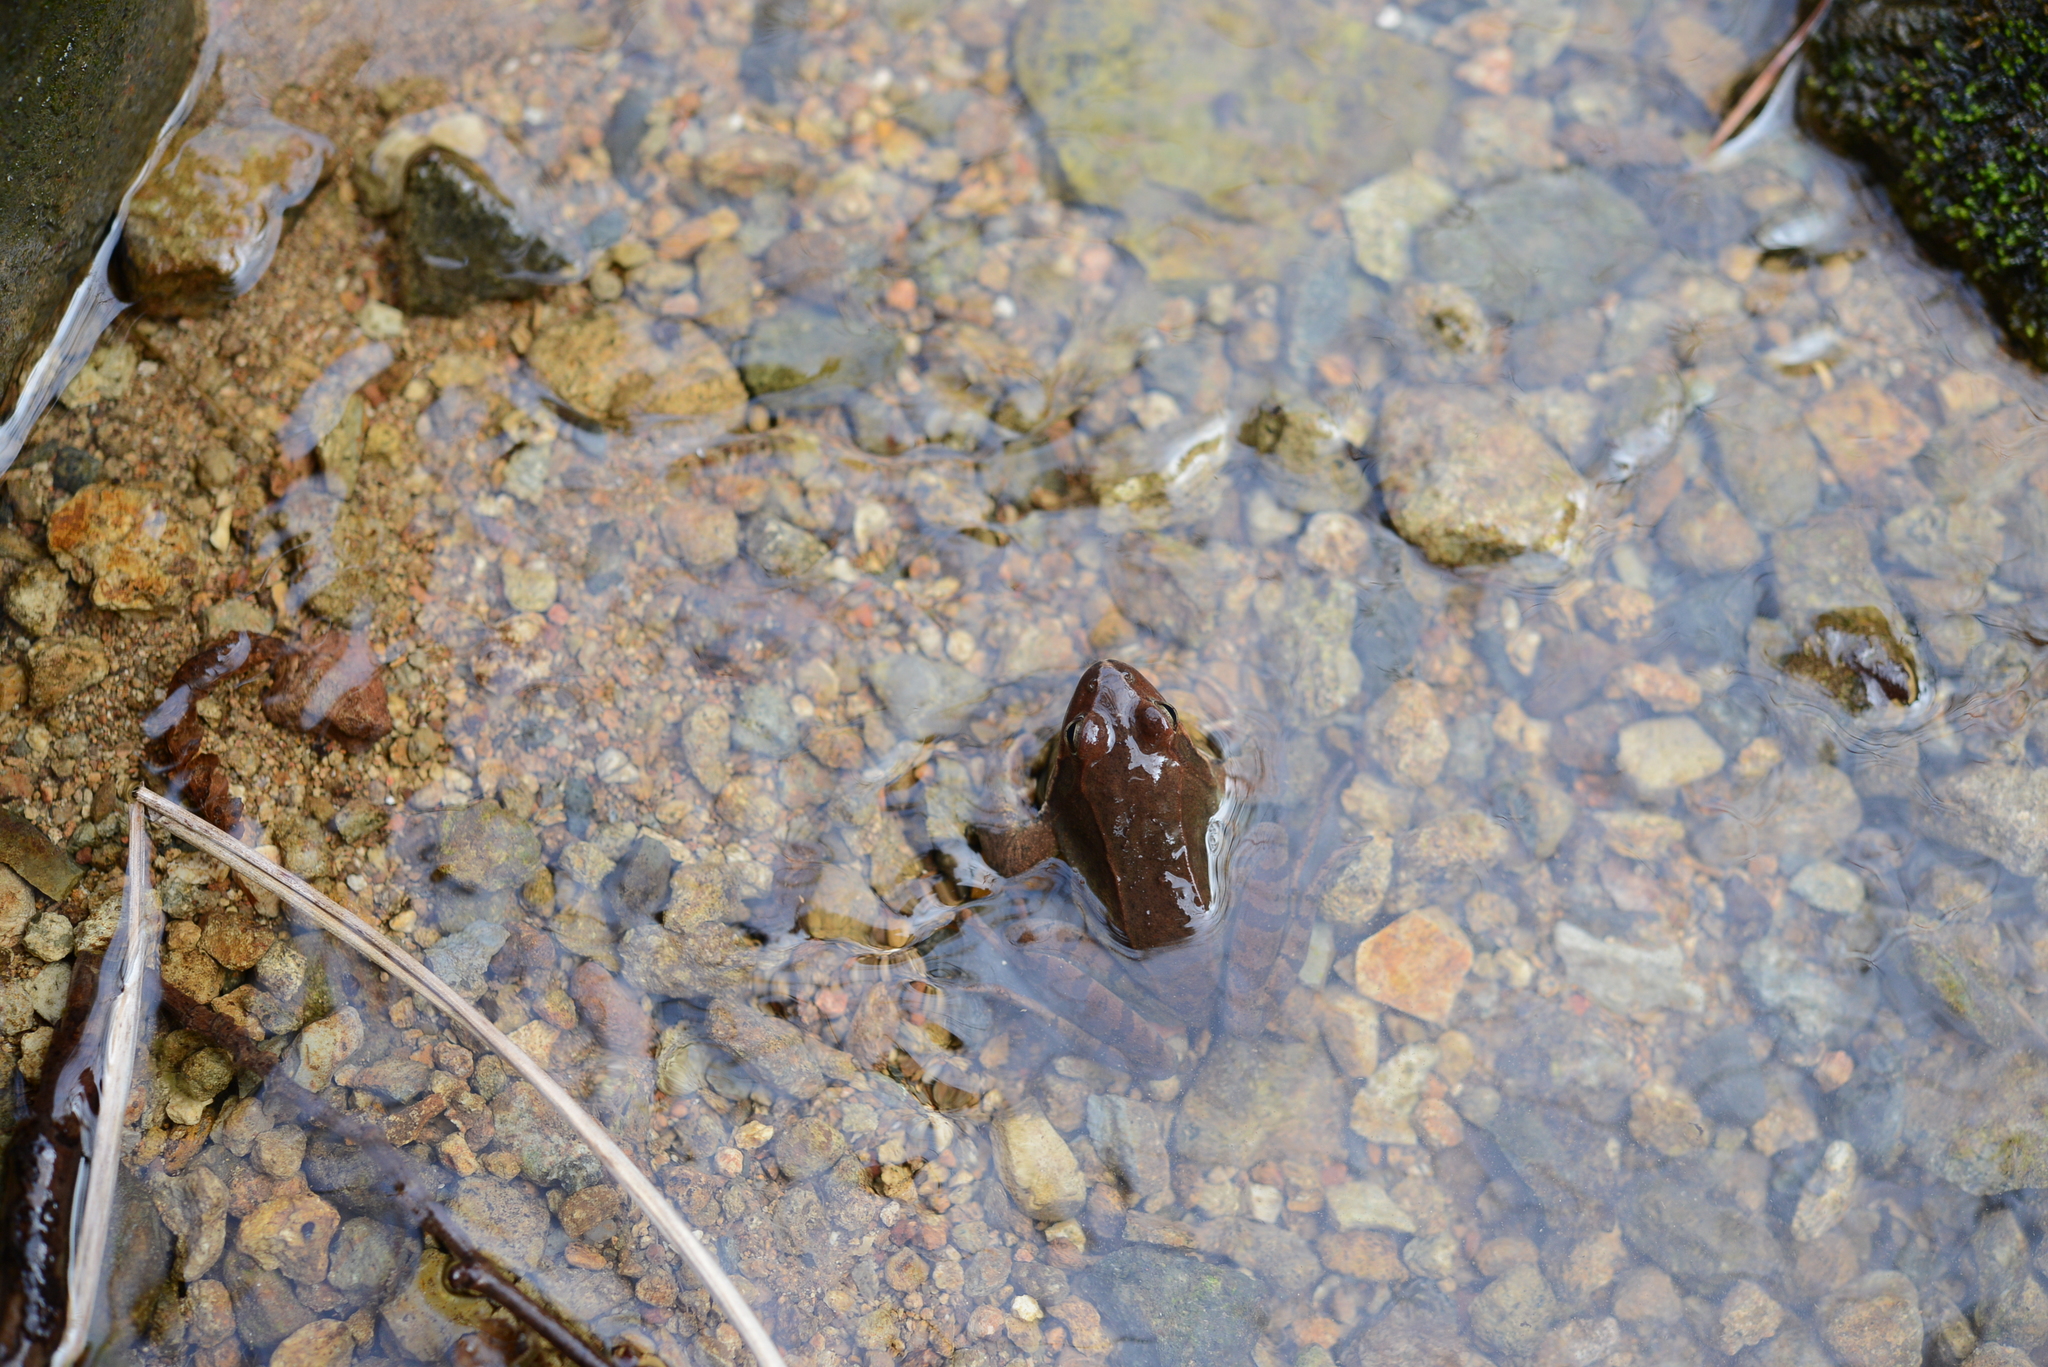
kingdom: Animalia
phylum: Chordata
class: Amphibia
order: Anura
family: Ranidae
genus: Rana
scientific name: Rana uenoi
